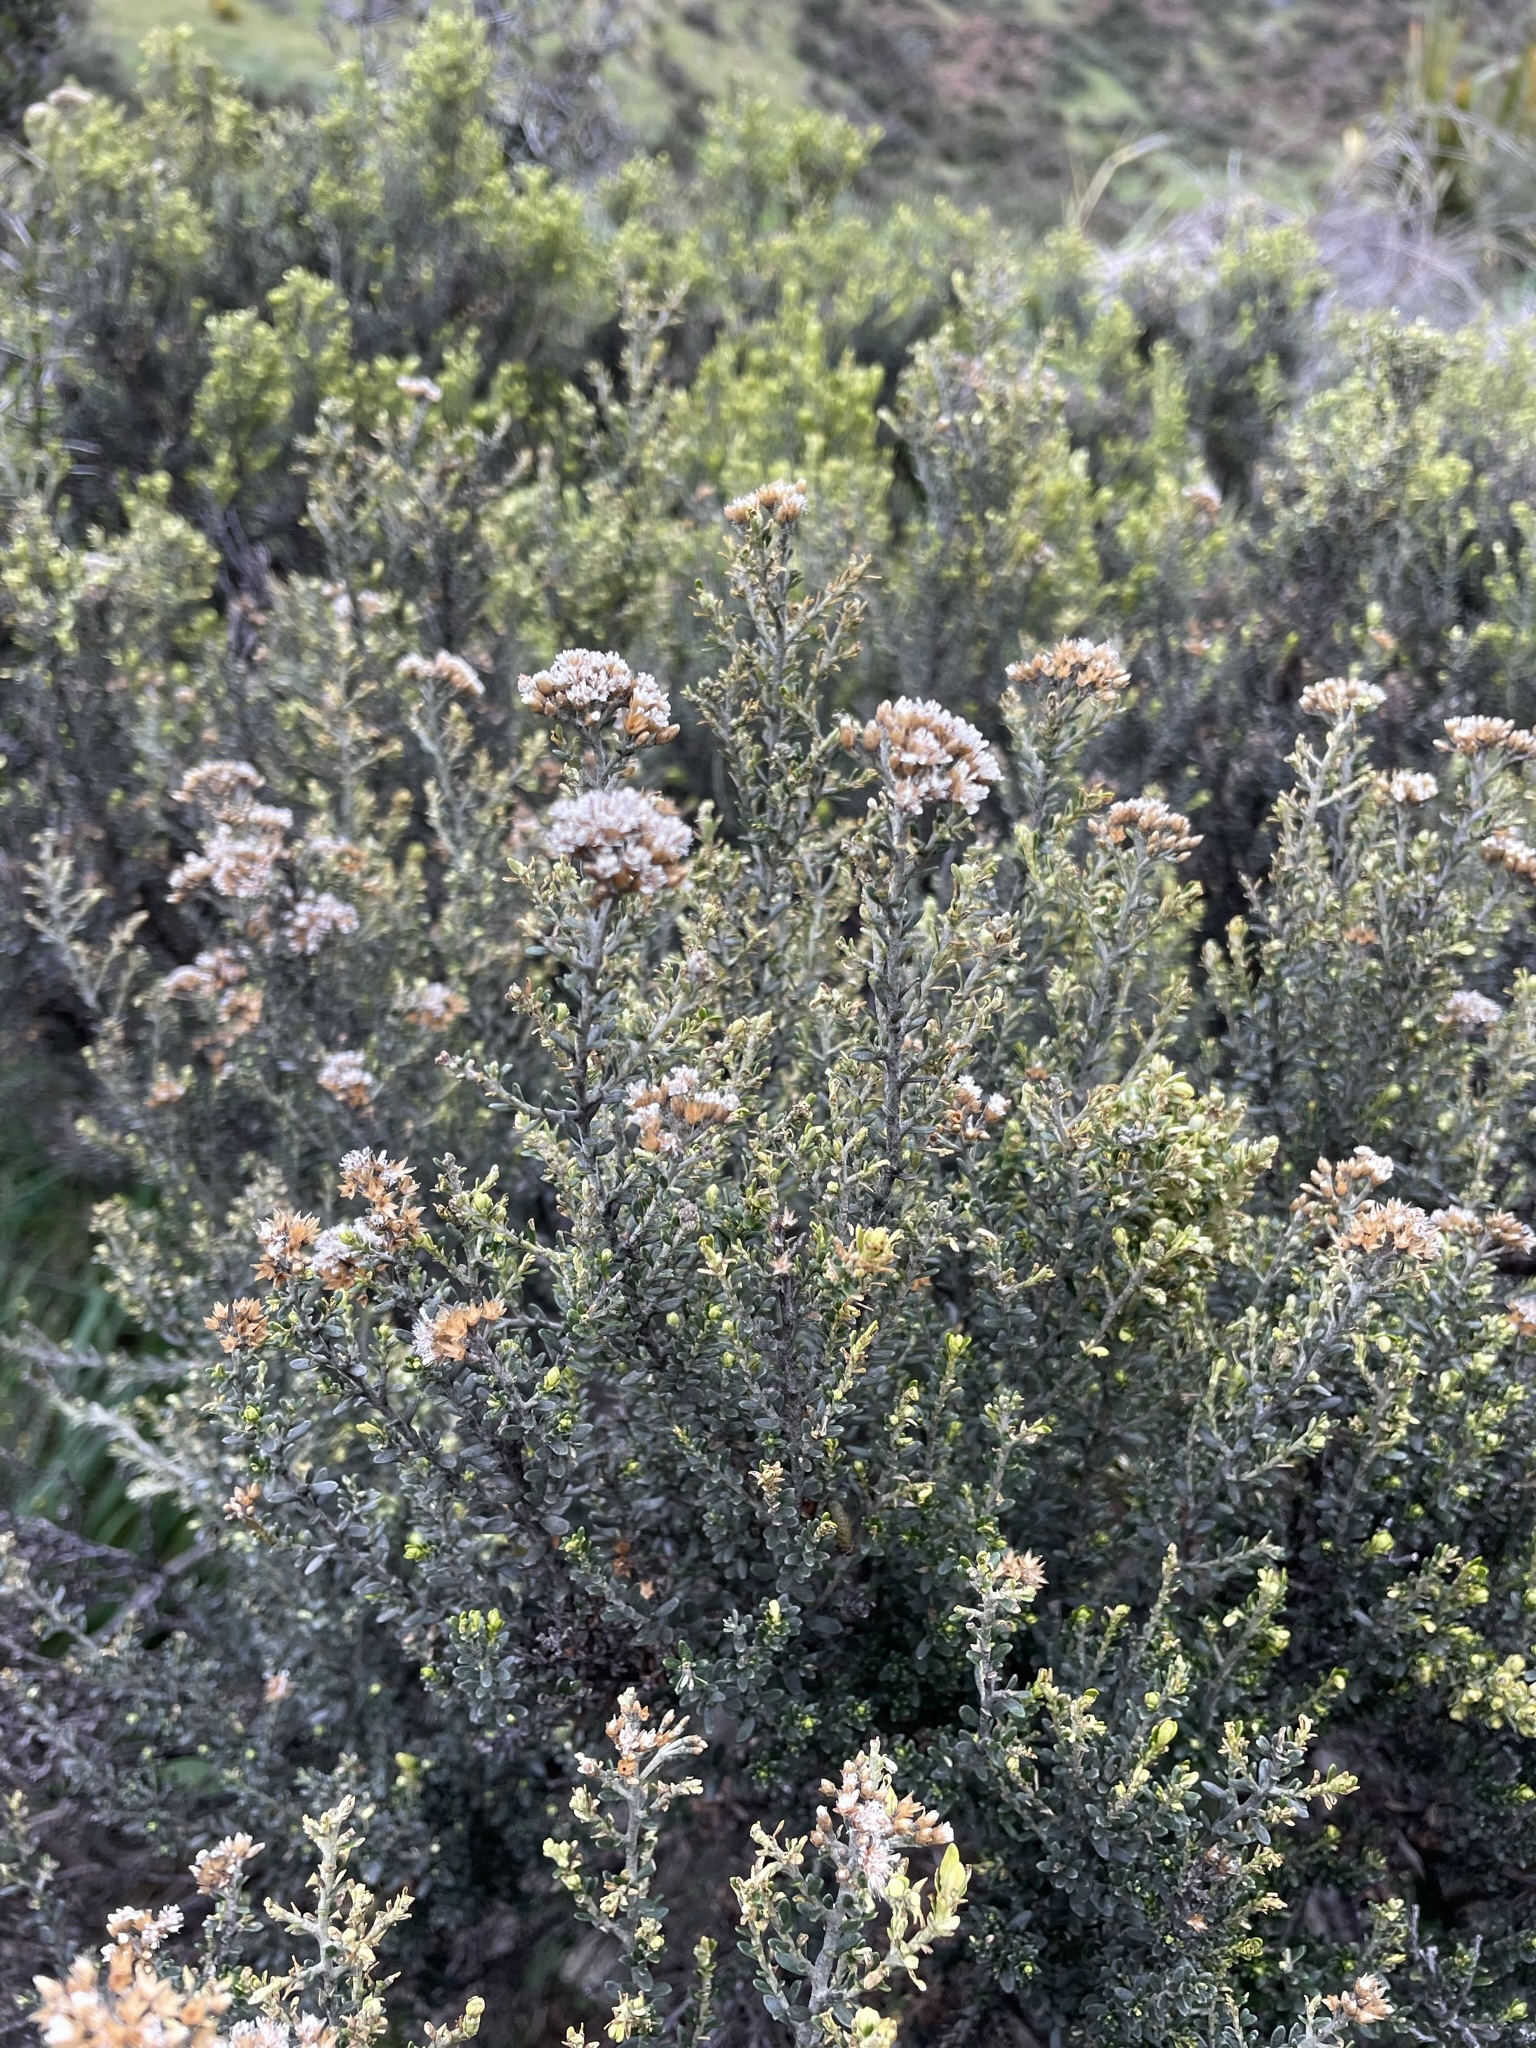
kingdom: Plantae
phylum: Tracheophyta
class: Magnoliopsida
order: Asterales
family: Asteraceae
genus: Ozothamnus
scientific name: Ozothamnus leptophyllus
